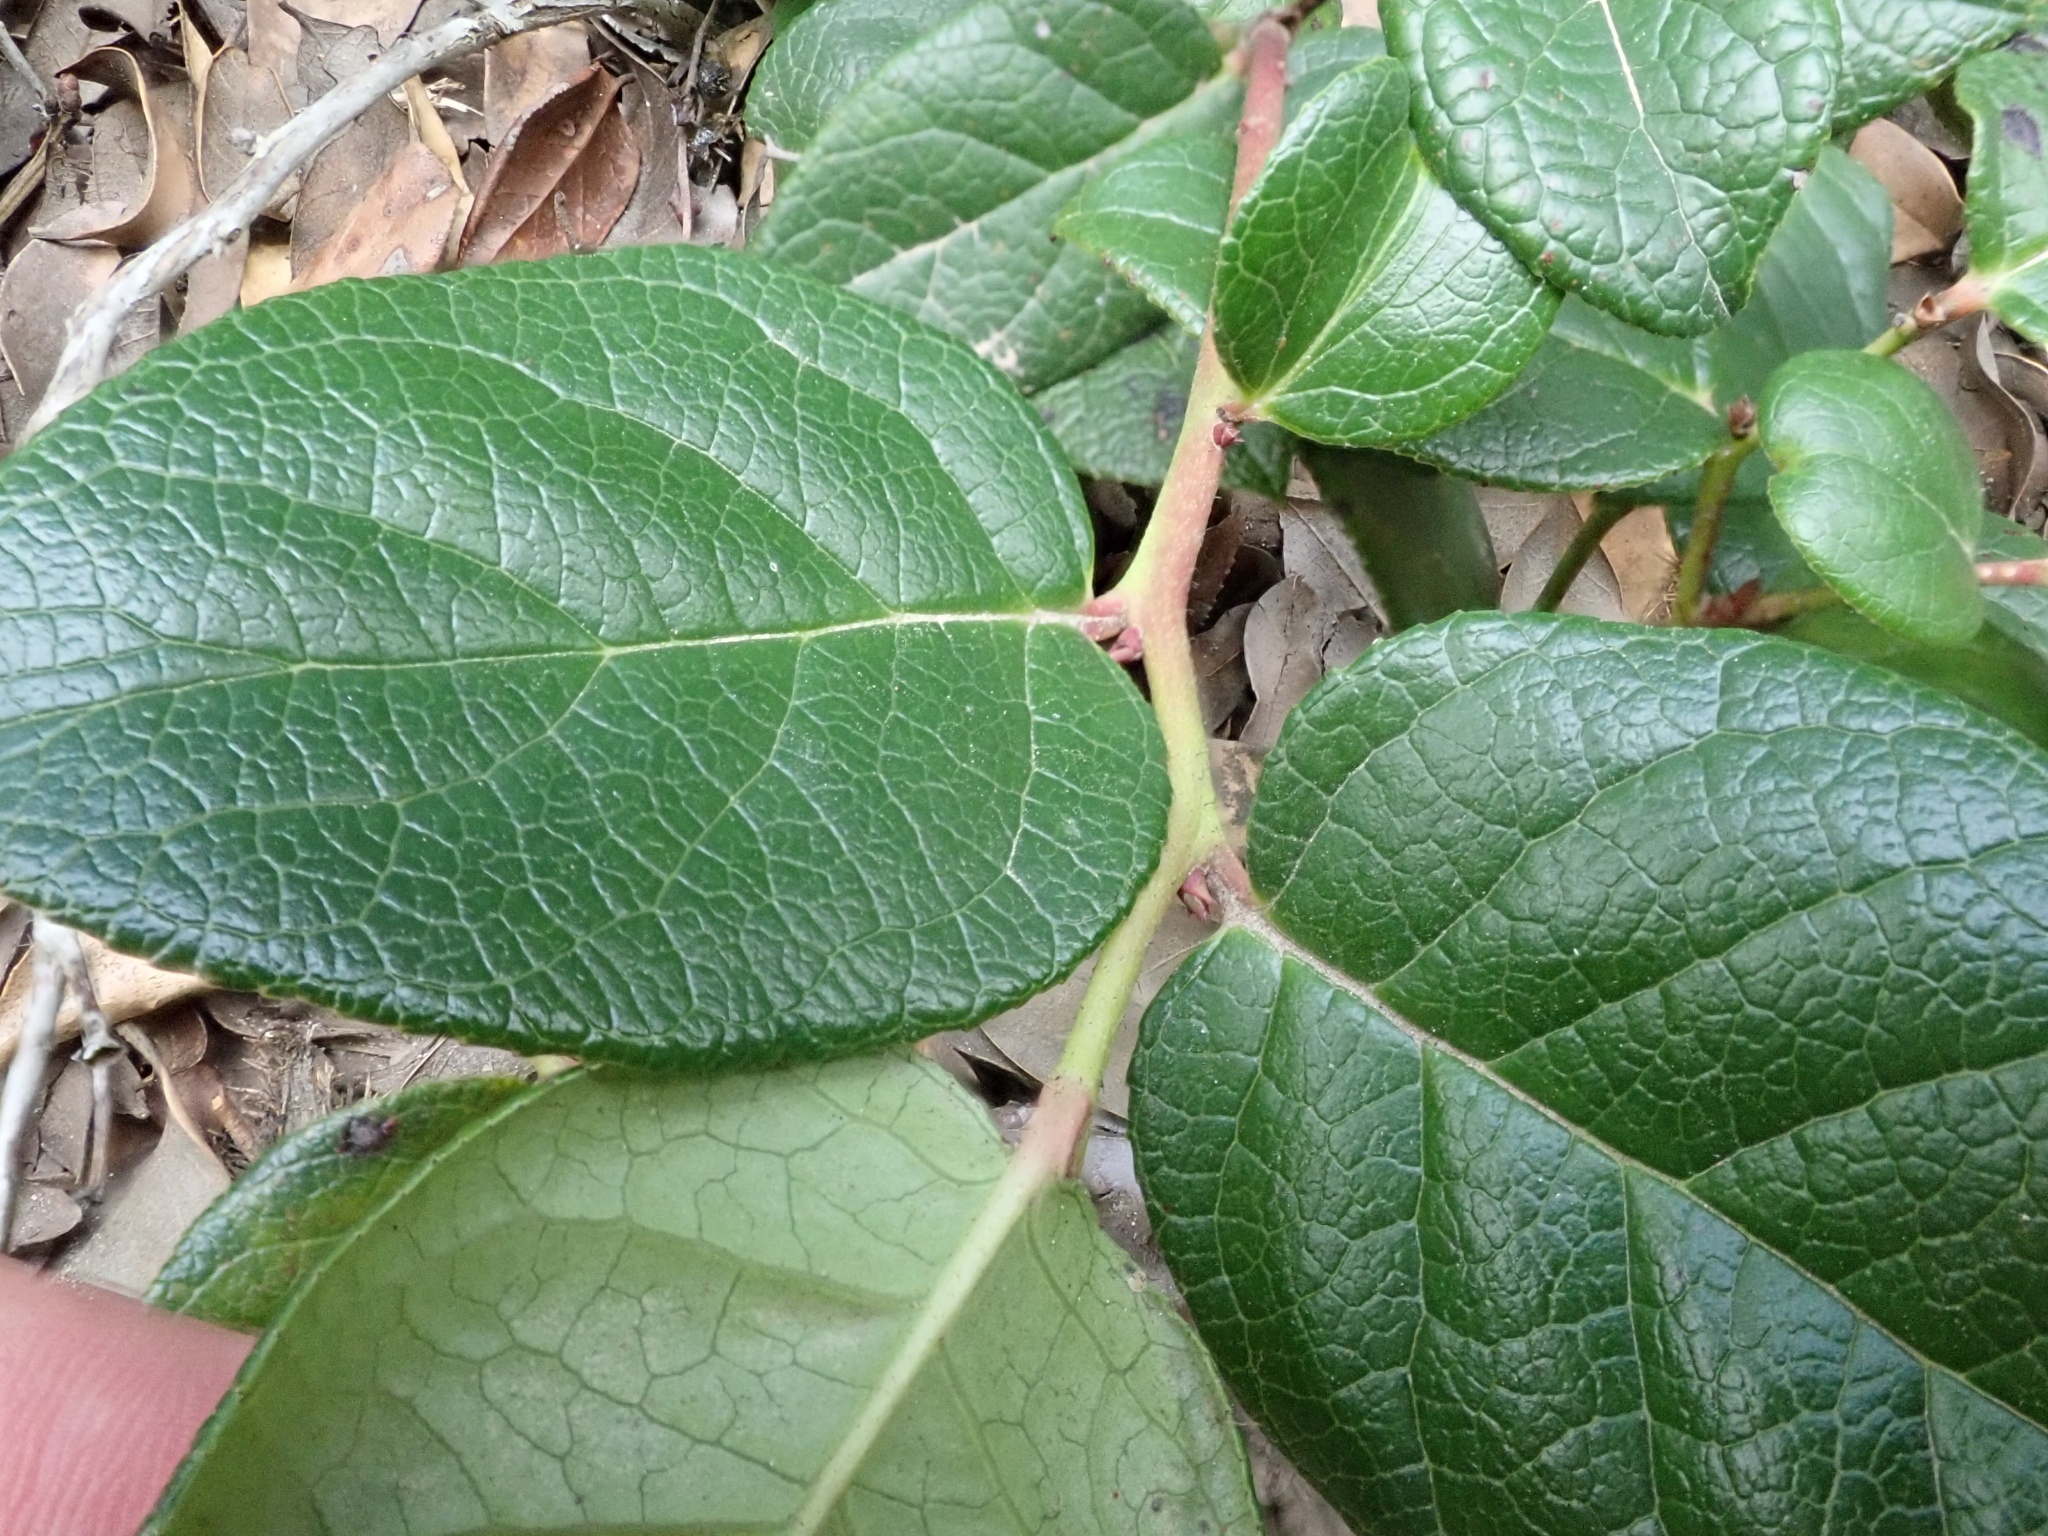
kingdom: Plantae
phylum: Tracheophyta
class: Magnoliopsida
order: Ericales
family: Ericaceae
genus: Gaultheria
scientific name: Gaultheria shallon
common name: Shallon
